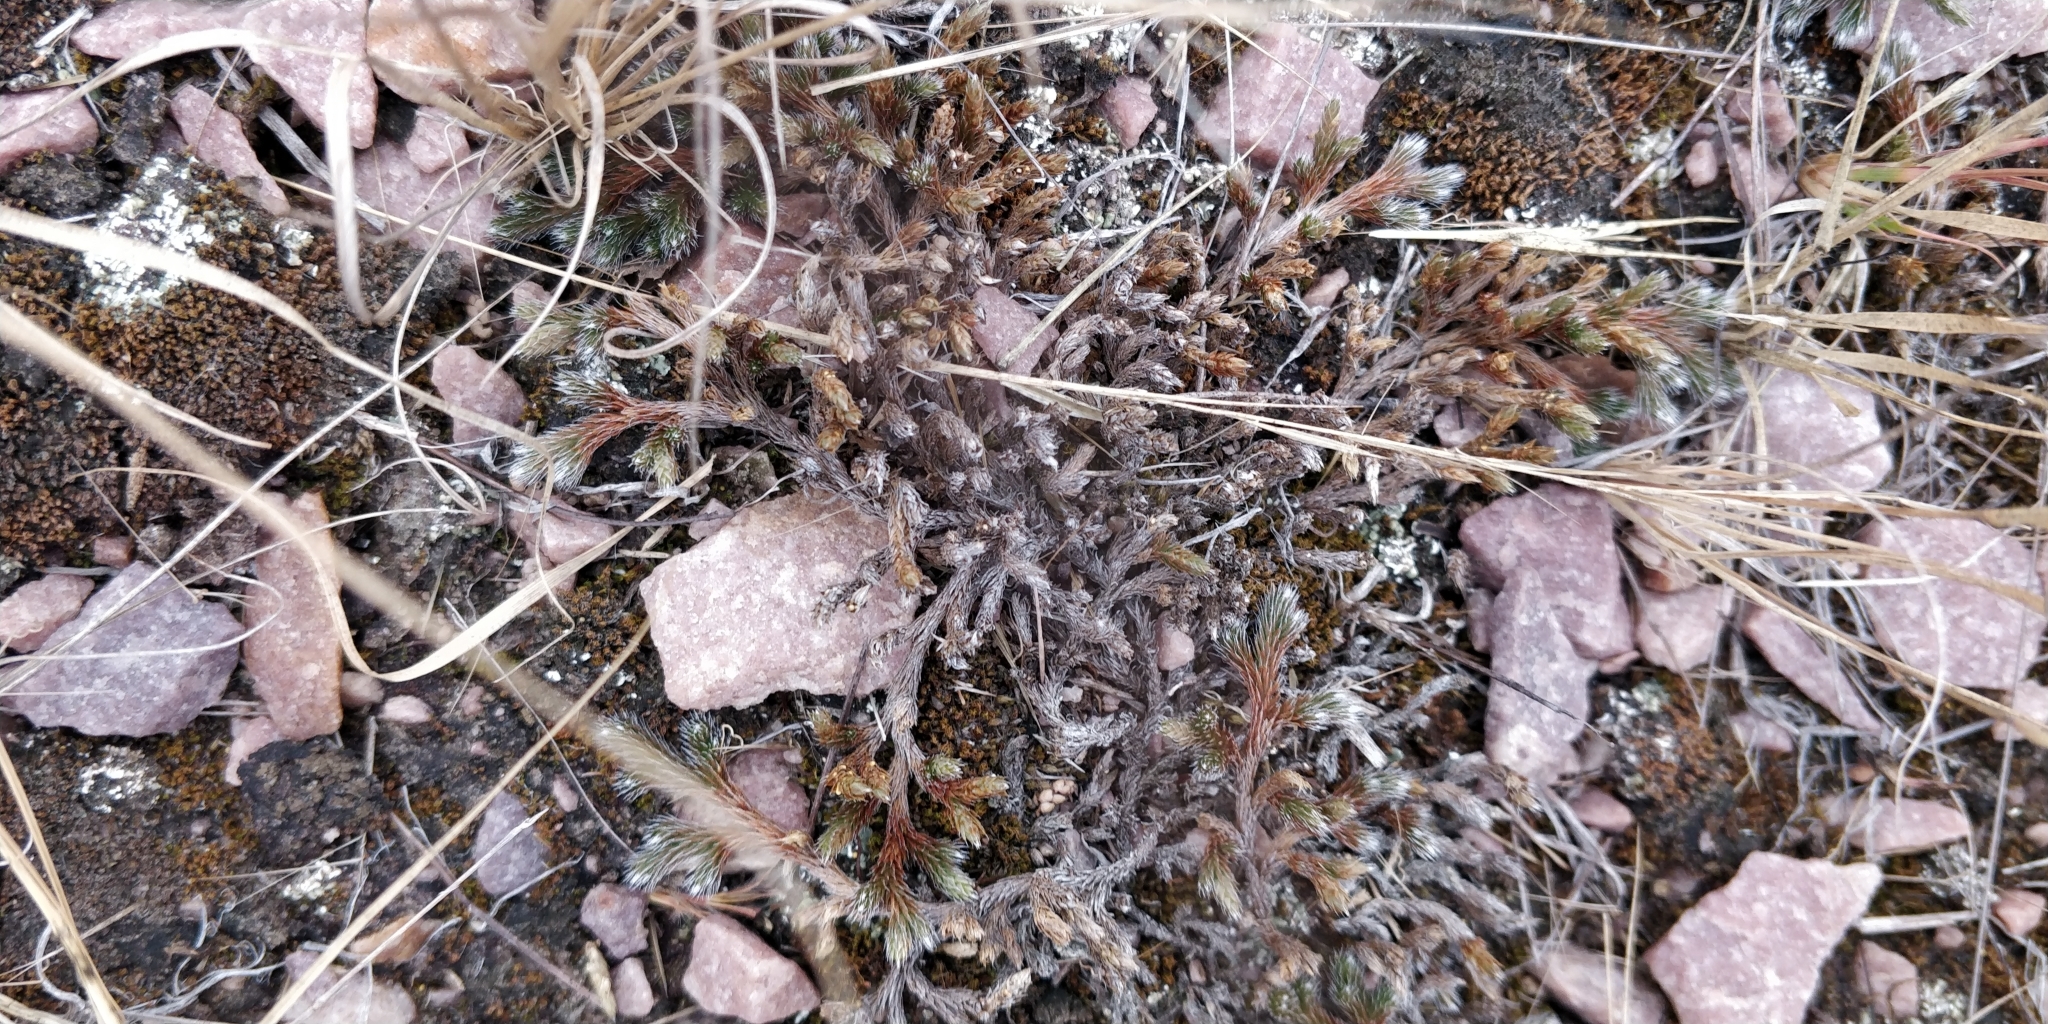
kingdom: Plantae
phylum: Tracheophyta
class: Lycopodiopsida
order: Selaginellales
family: Selaginellaceae
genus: Selaginella
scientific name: Selaginella rupestris
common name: Dwarf spikemoss
